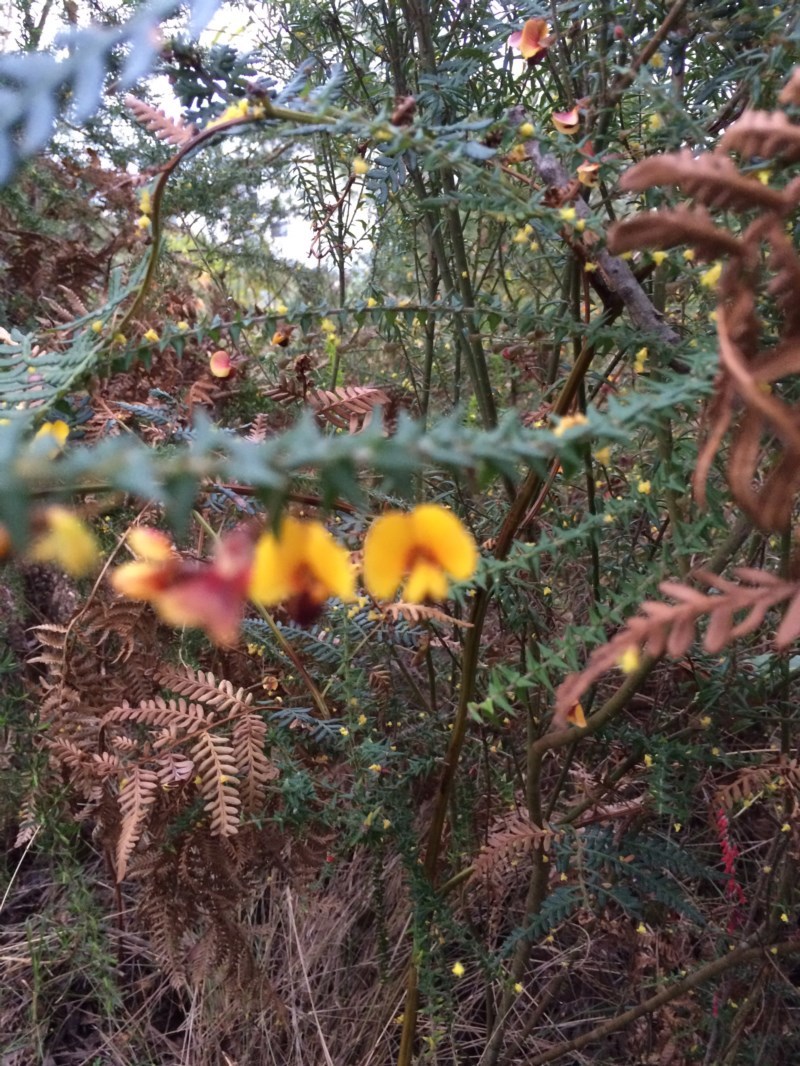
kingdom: Plantae
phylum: Tracheophyta
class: Magnoliopsida
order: Fabales
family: Fabaceae
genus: Bossiaea
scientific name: Bossiaea cinerea
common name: Showy bossiaea
